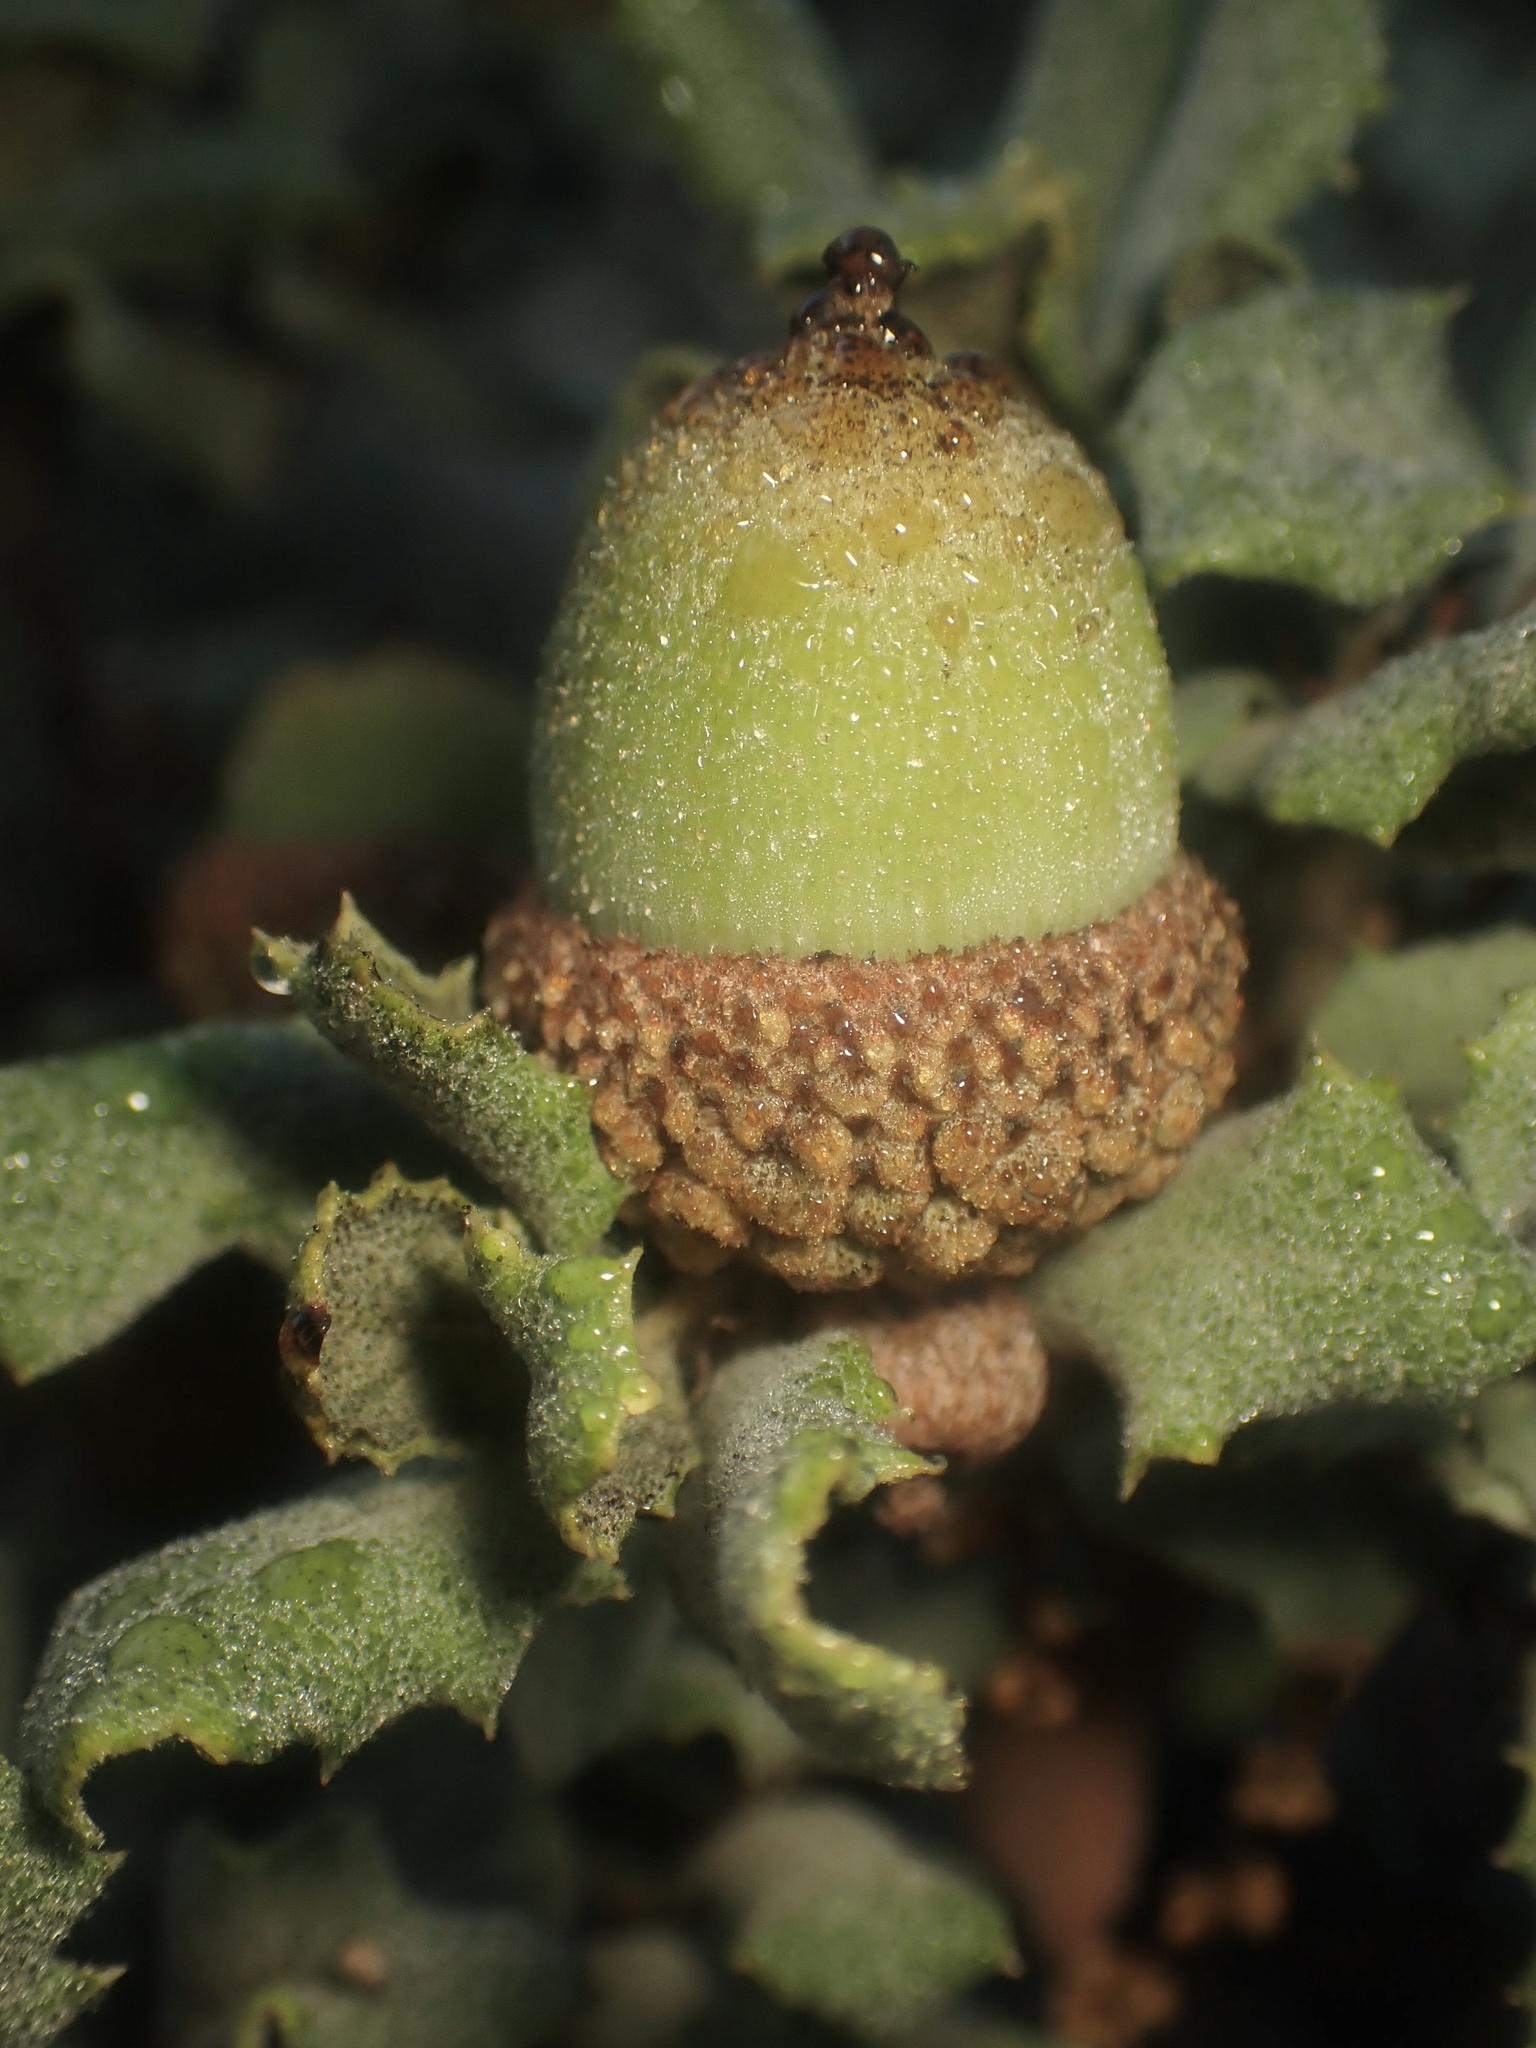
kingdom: Plantae
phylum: Tracheophyta
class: Magnoliopsida
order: Fagales
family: Fagaceae
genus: Quercus
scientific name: Quercus durata
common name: Leather oak
